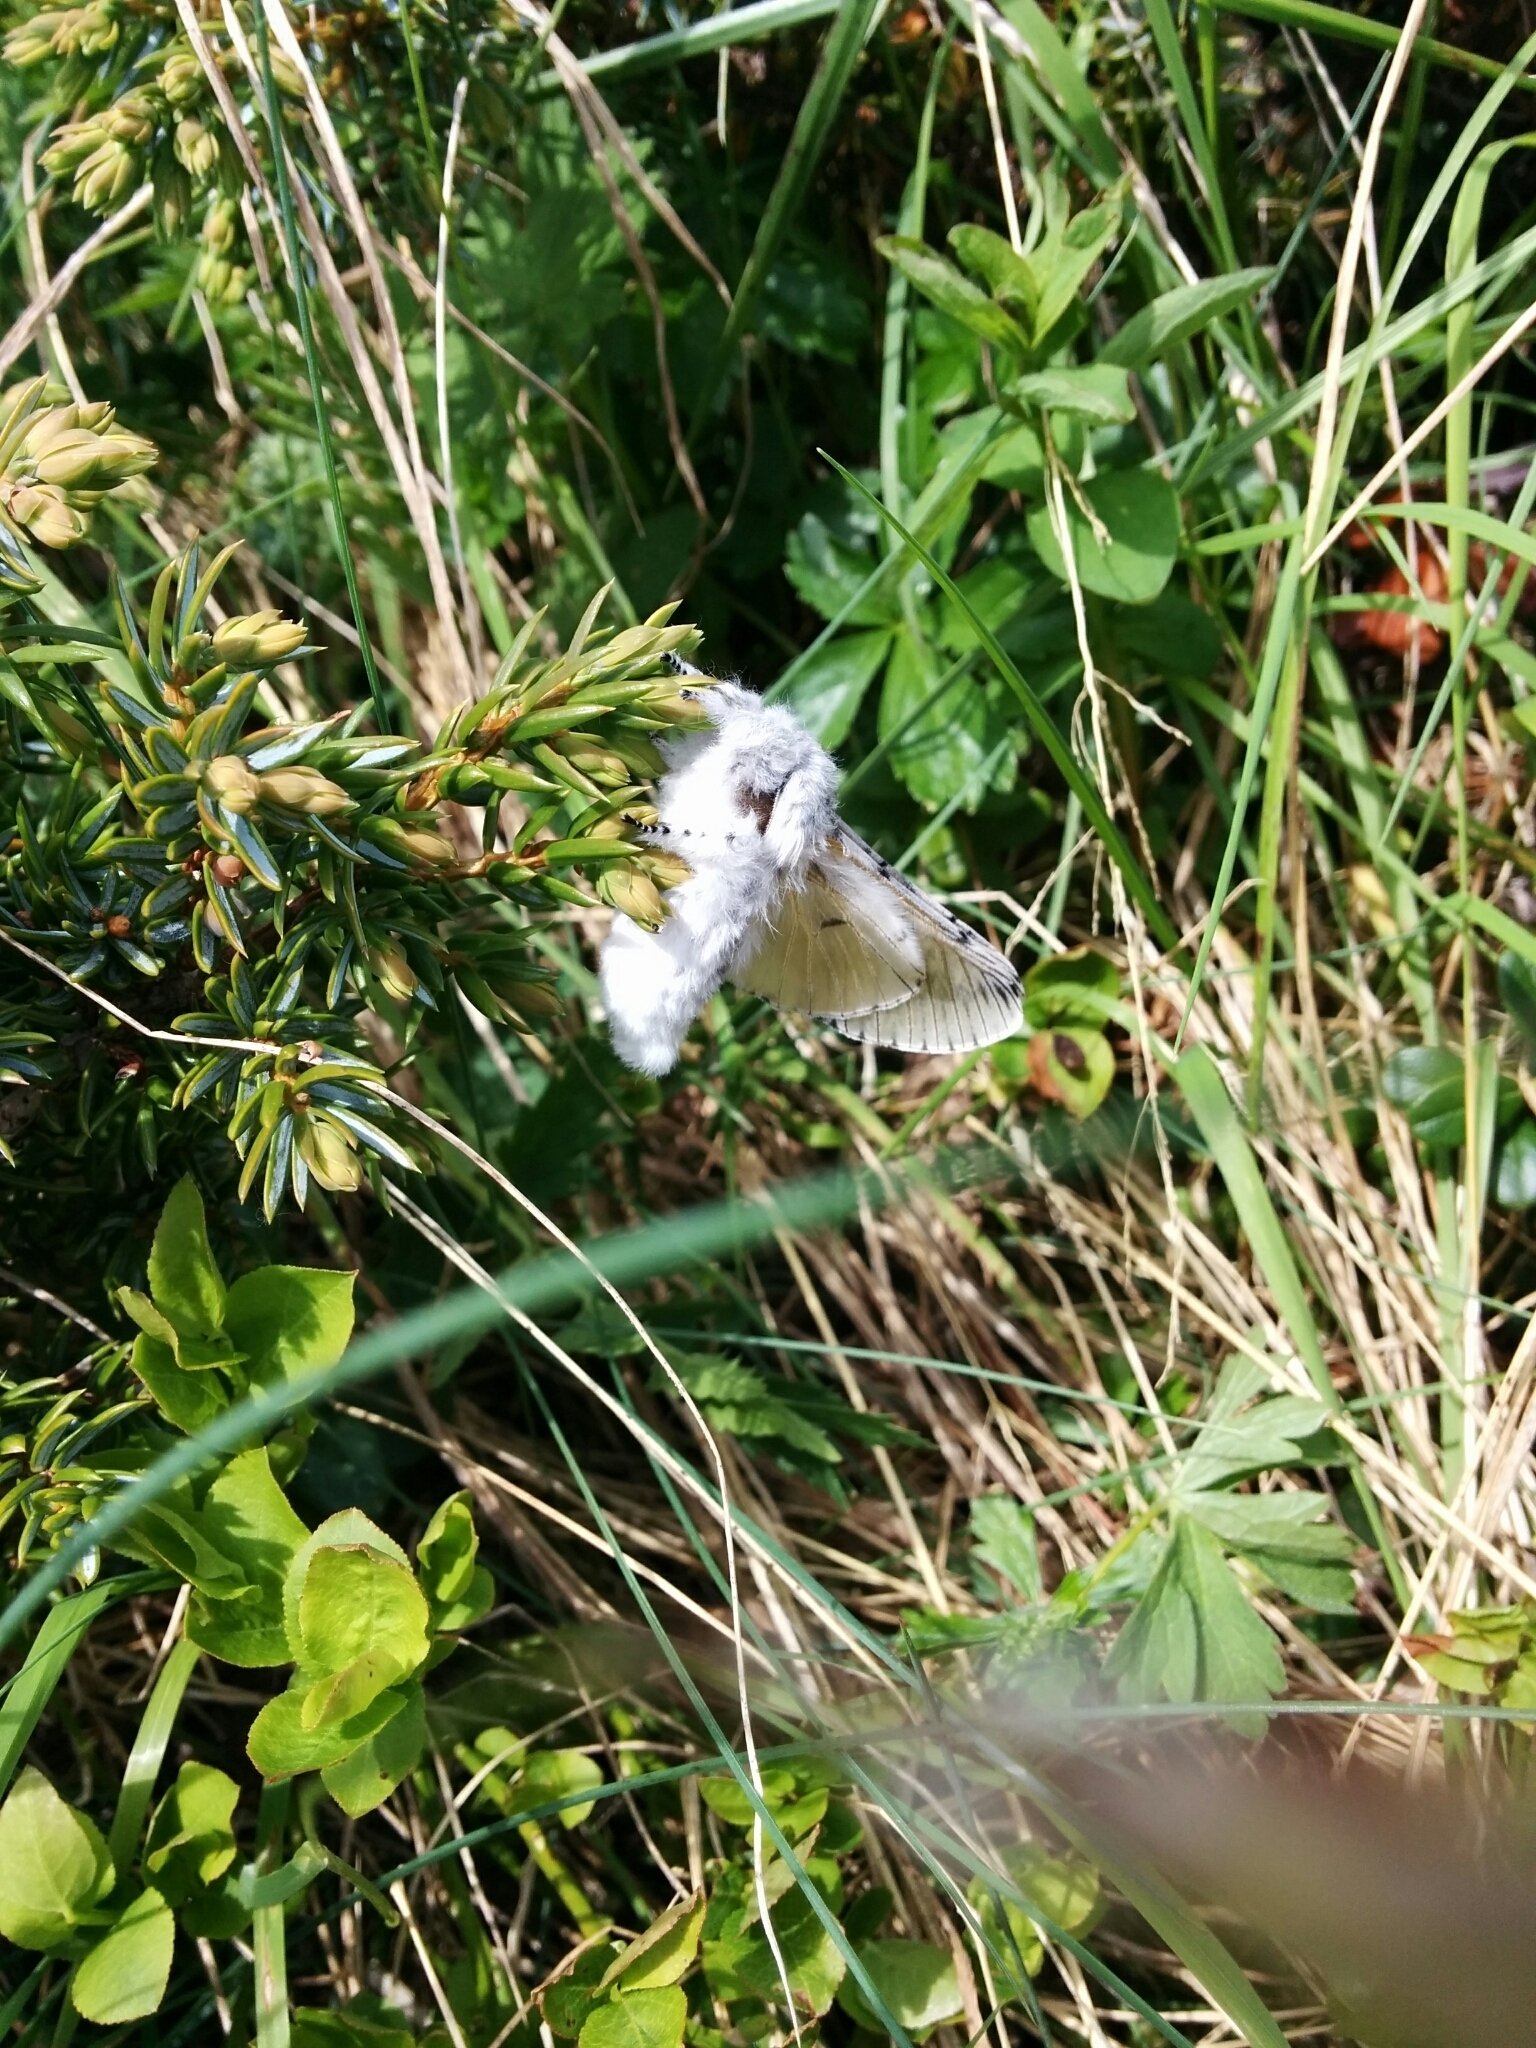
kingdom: Animalia
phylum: Arthropoda
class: Insecta
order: Lepidoptera
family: Notodontidae
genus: Cerura
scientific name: Cerura vinula
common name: Puss moth
